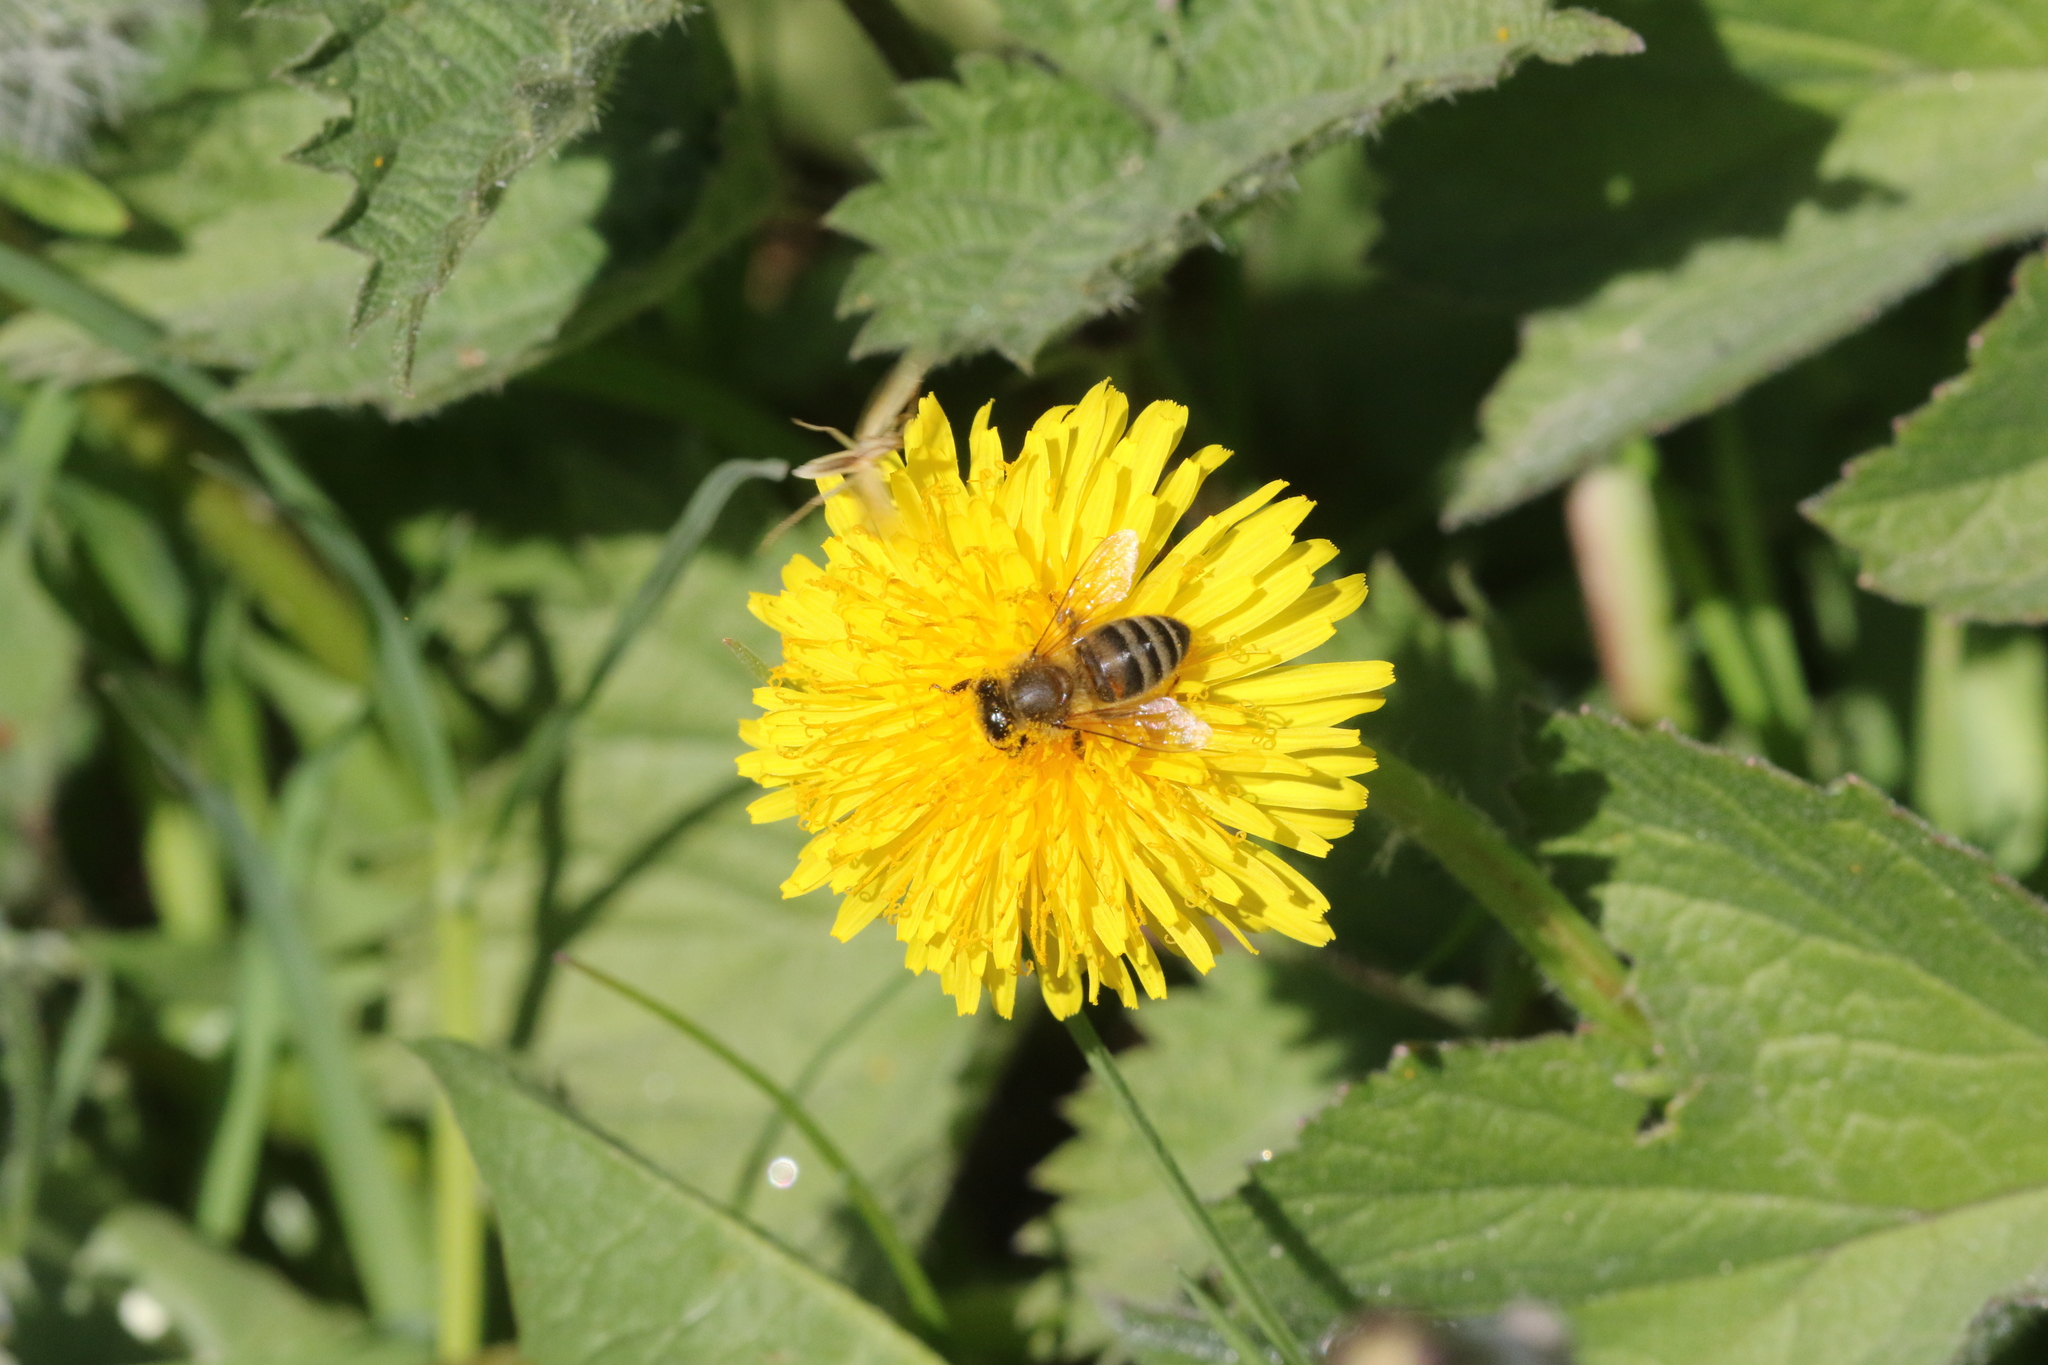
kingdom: Animalia
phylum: Arthropoda
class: Insecta
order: Hymenoptera
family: Apidae
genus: Apis
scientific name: Apis mellifera
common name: Honey bee
